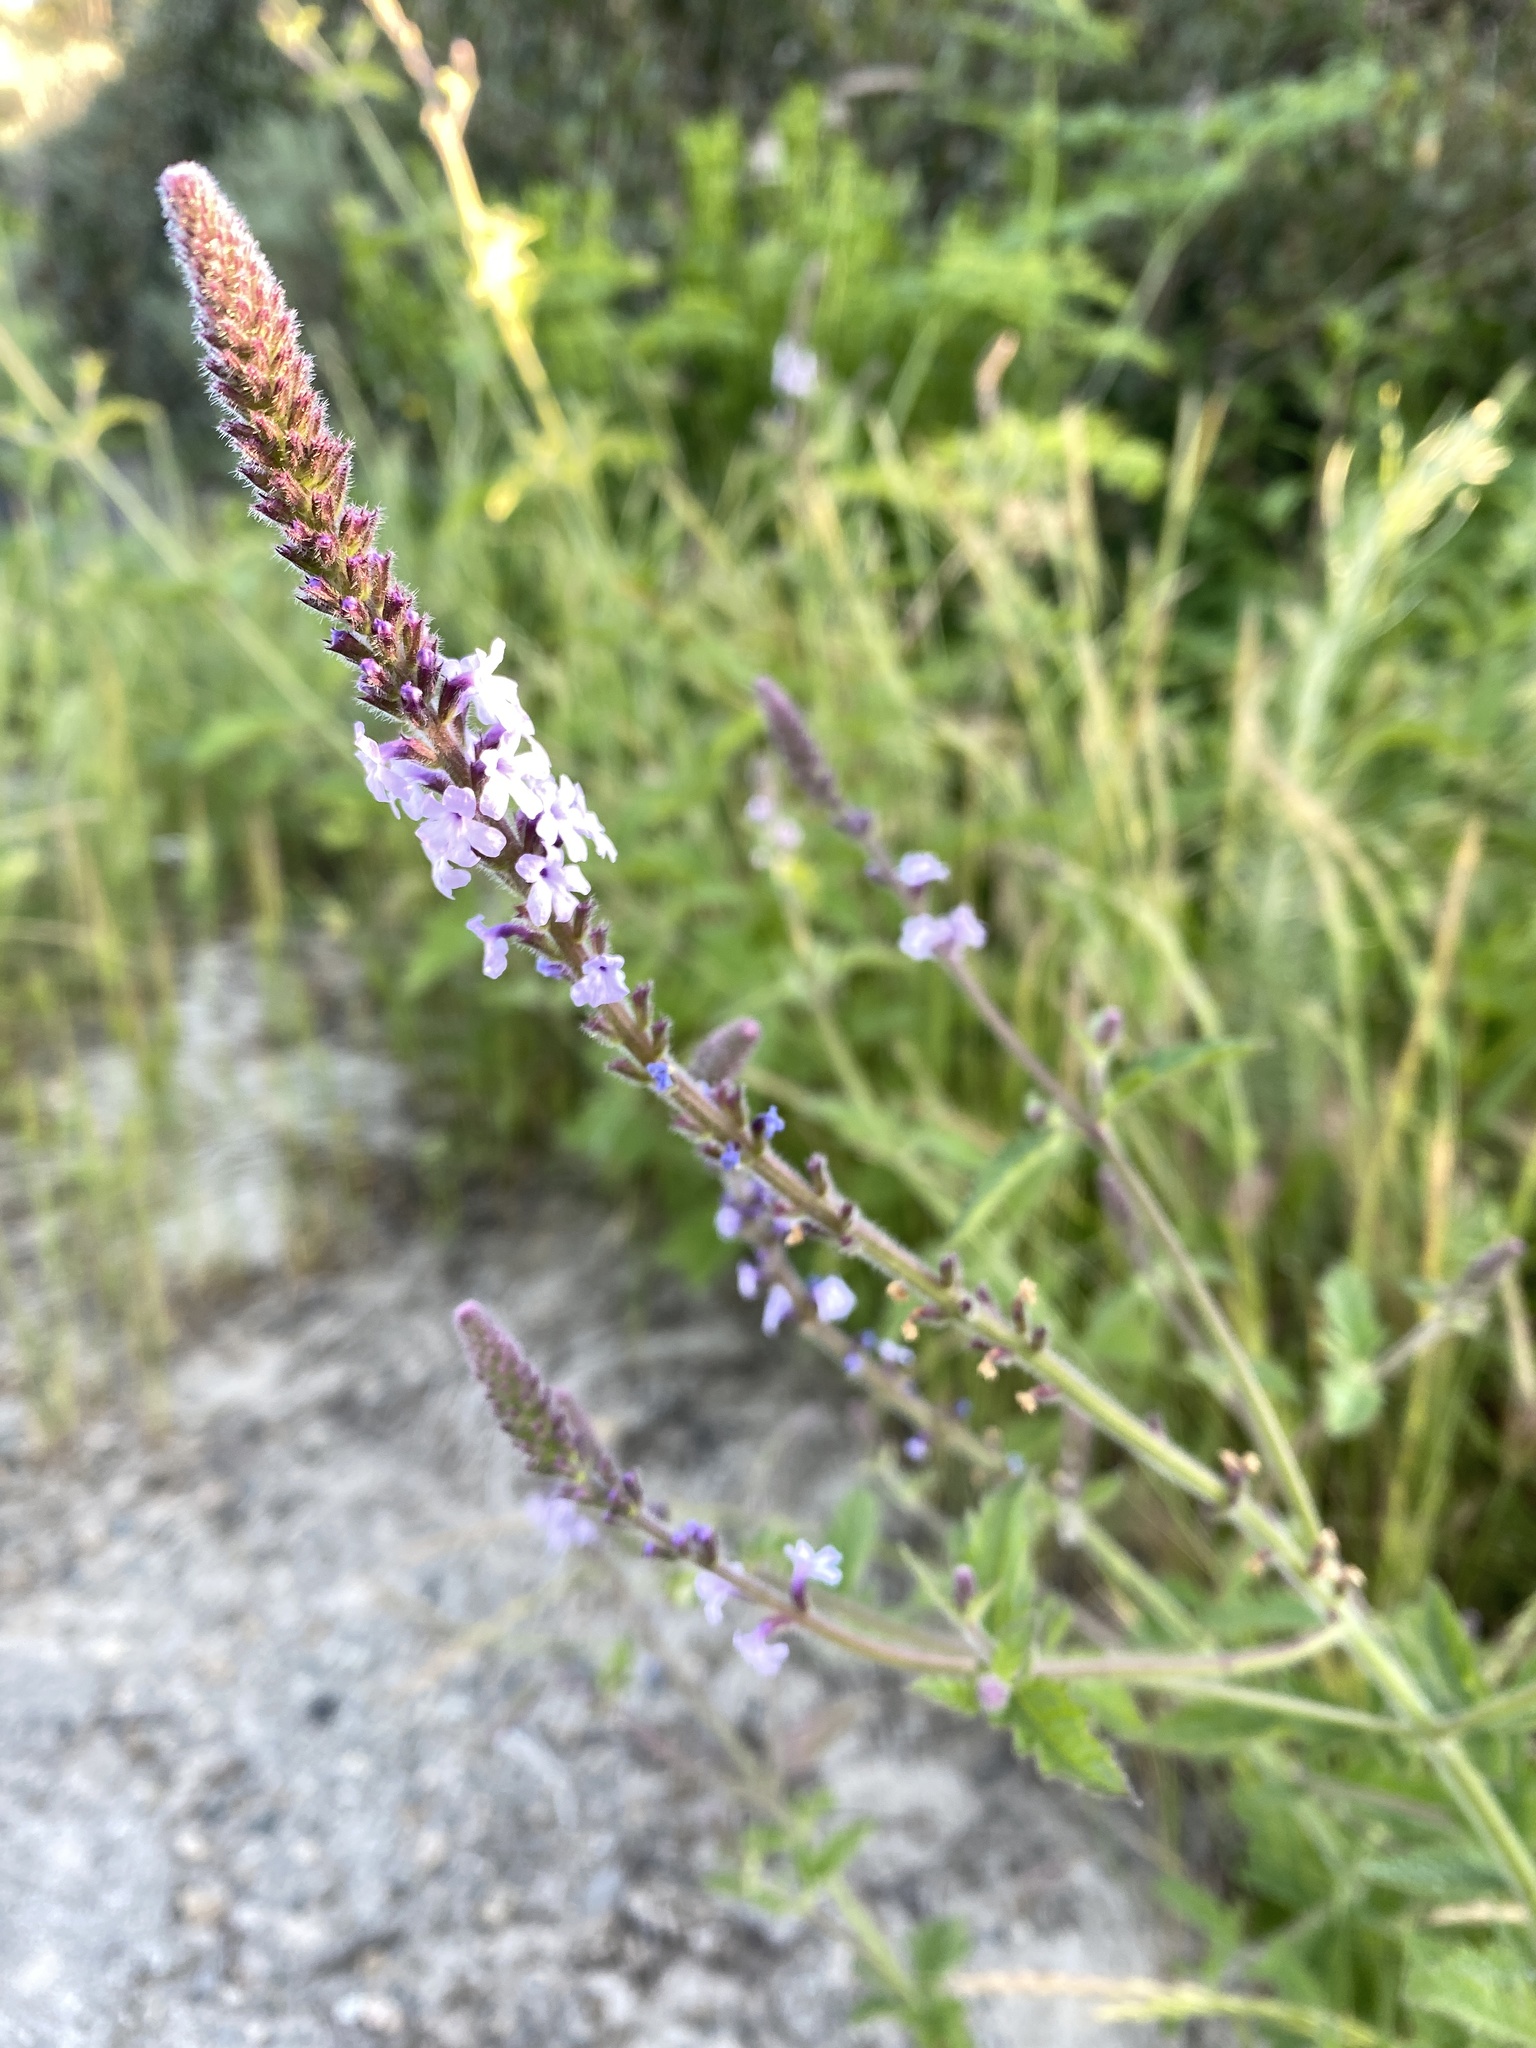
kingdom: Plantae
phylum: Tracheophyta
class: Magnoliopsida
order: Lamiales
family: Verbenaceae
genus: Verbena
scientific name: Verbena lasiostachys
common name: Vervain
